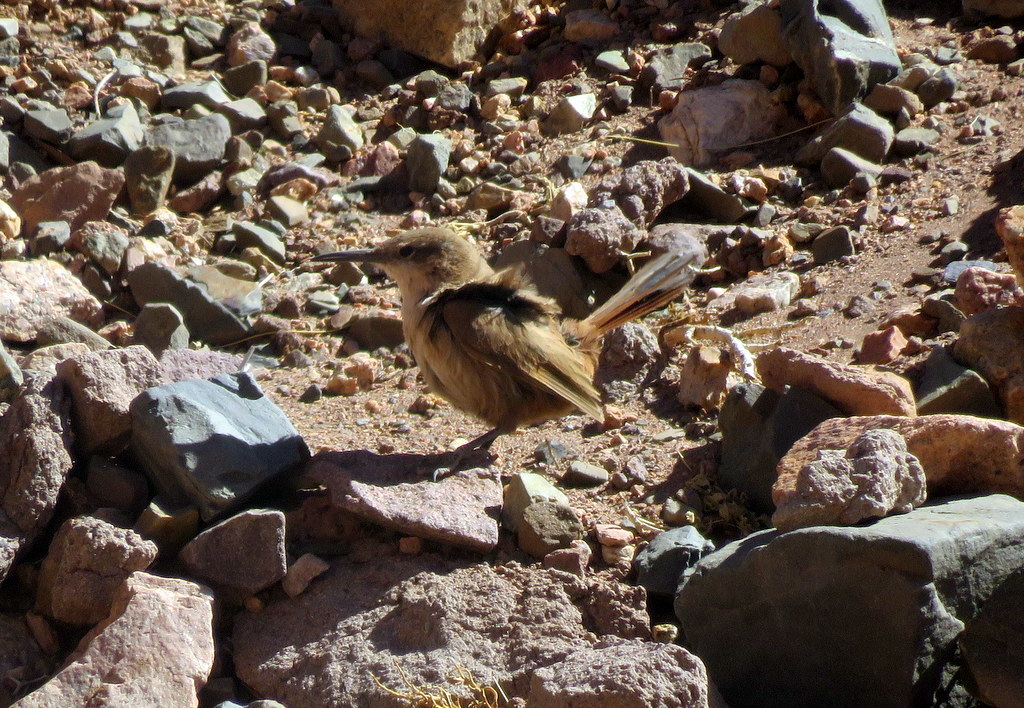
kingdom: Animalia
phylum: Chordata
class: Aves
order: Passeriformes
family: Furnariidae
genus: Upucerthia
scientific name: Upucerthia ruficaudus
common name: Straight-billed earthcreeper
